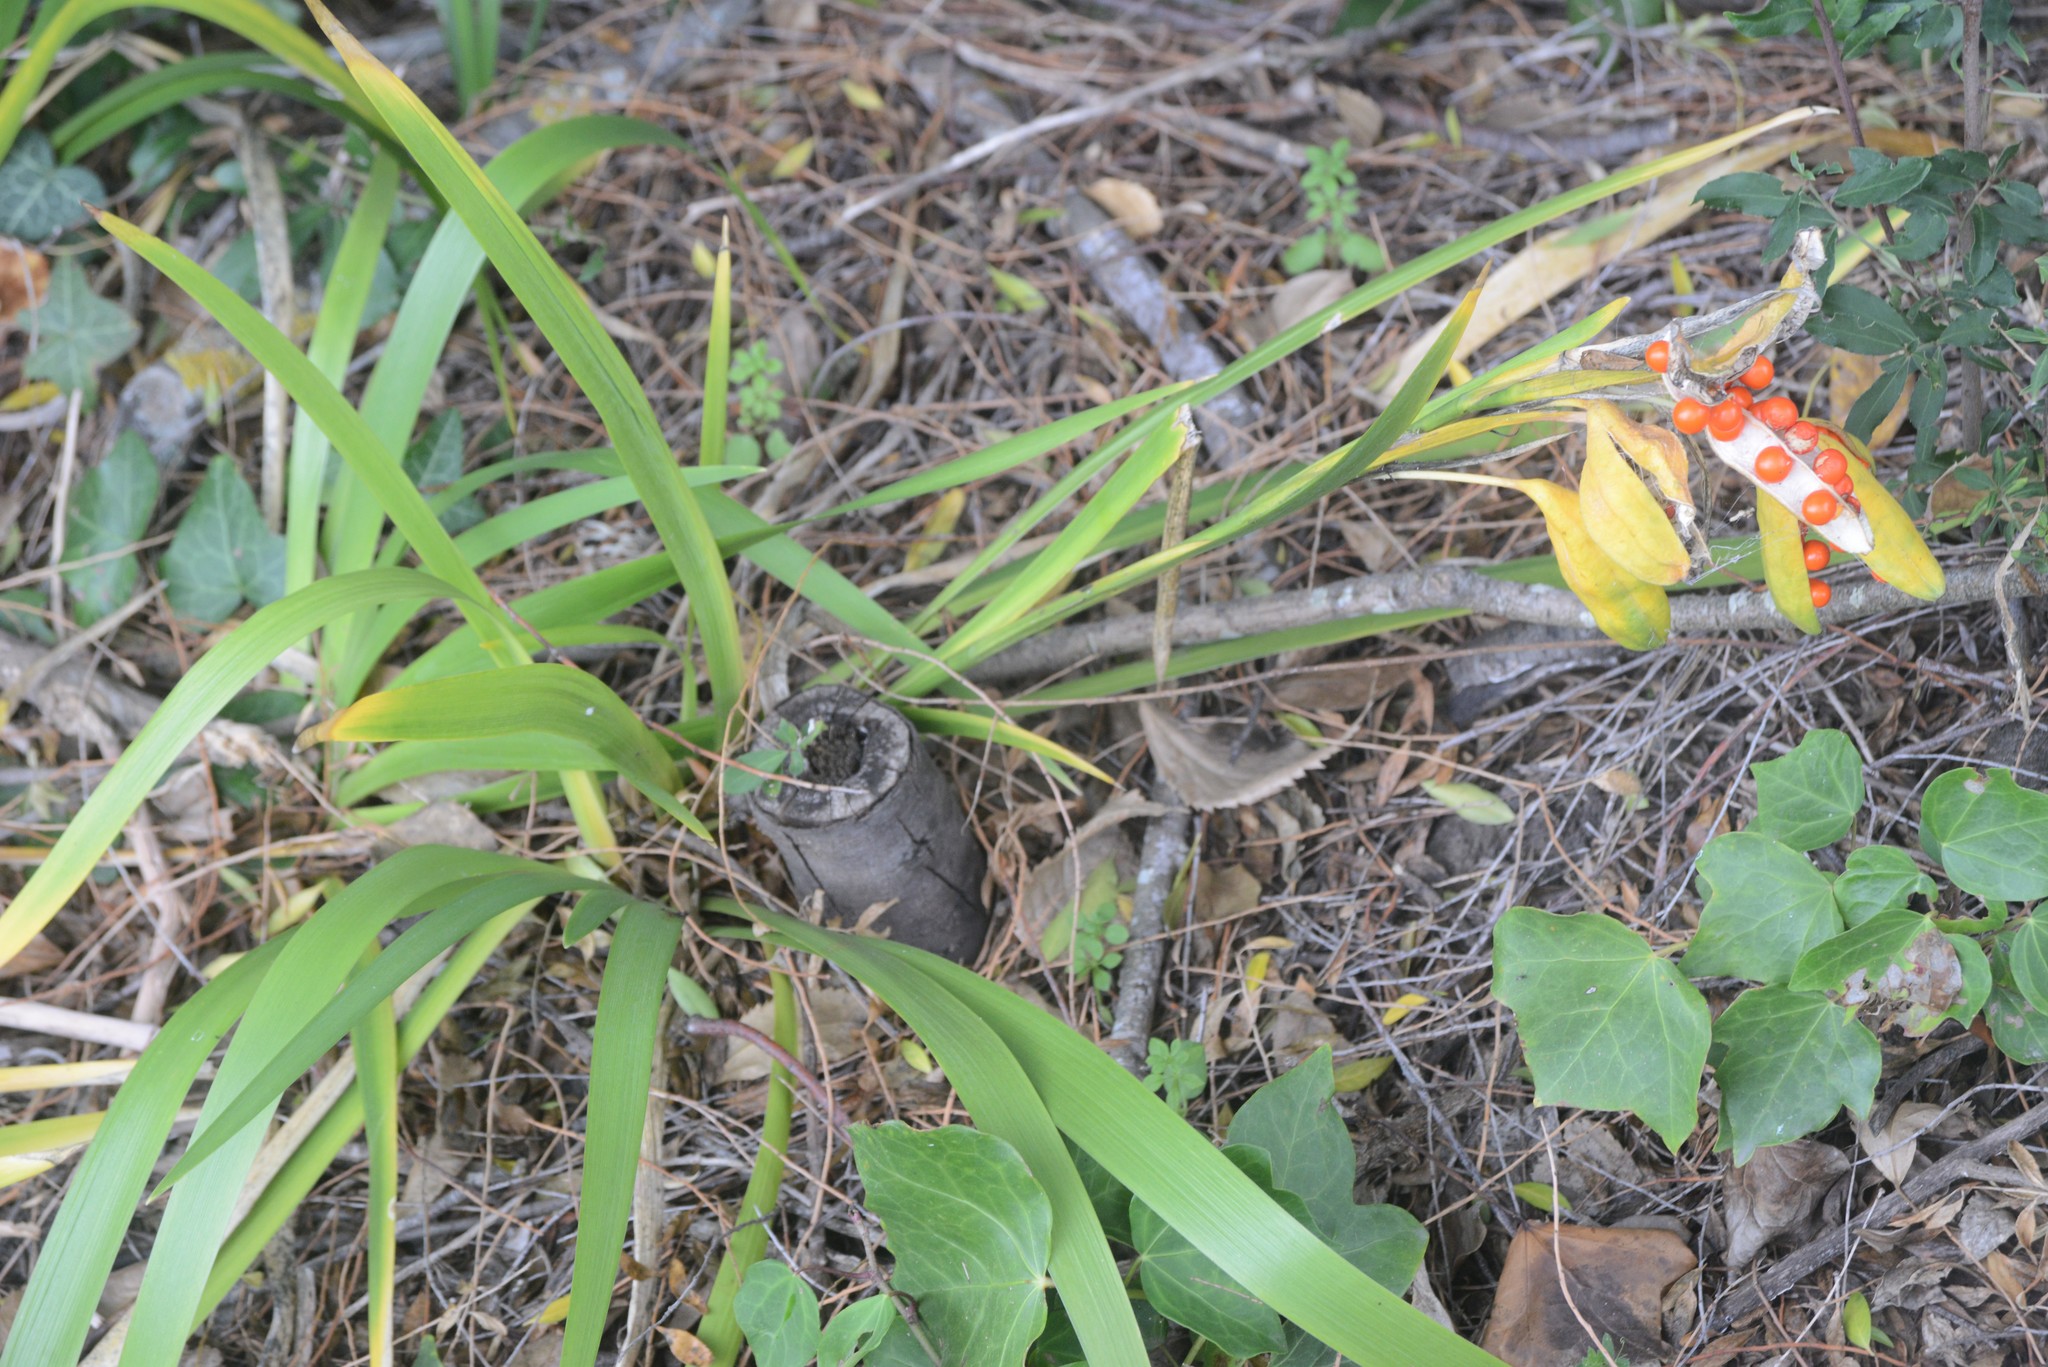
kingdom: Plantae
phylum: Tracheophyta
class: Liliopsida
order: Asparagales
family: Iridaceae
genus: Iris
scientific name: Iris foetidissima
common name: Stinking iris
